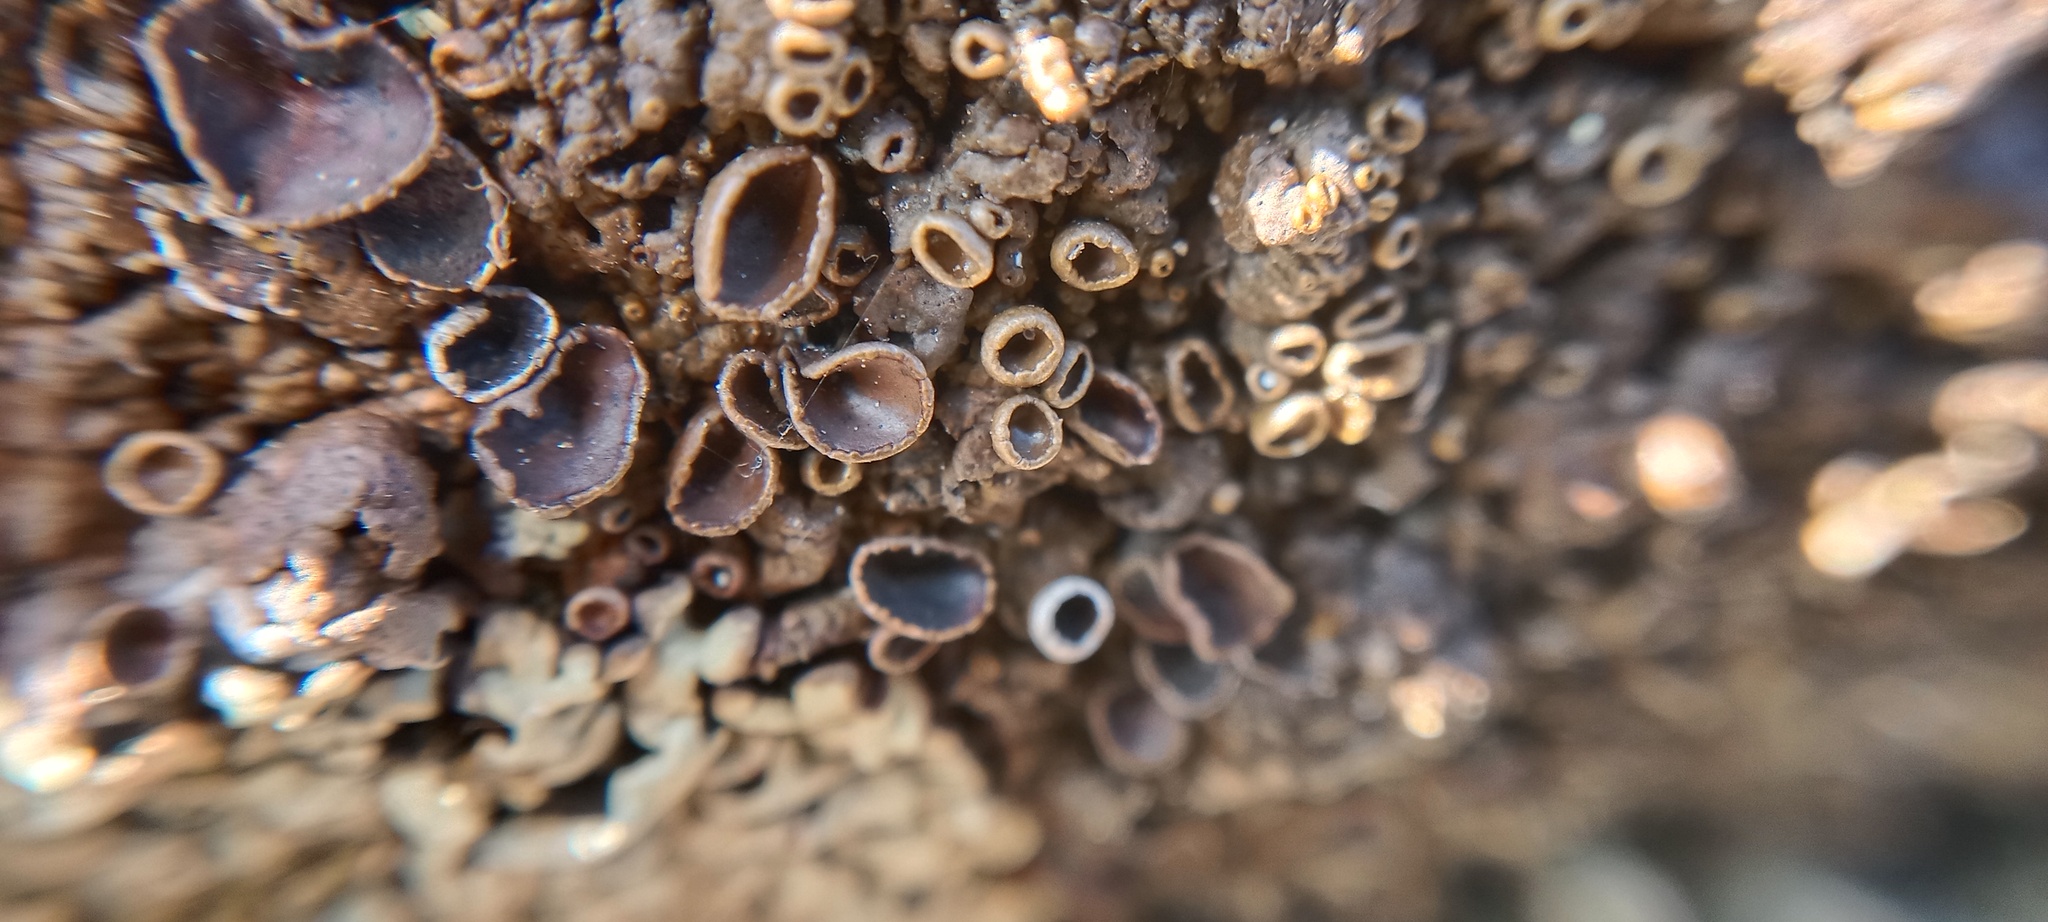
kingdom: Fungi
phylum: Ascomycota
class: Lecanoromycetes
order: Lecanorales
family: Parmeliaceae
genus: Xanthoparmelia
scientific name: Xanthoparmelia pulla
